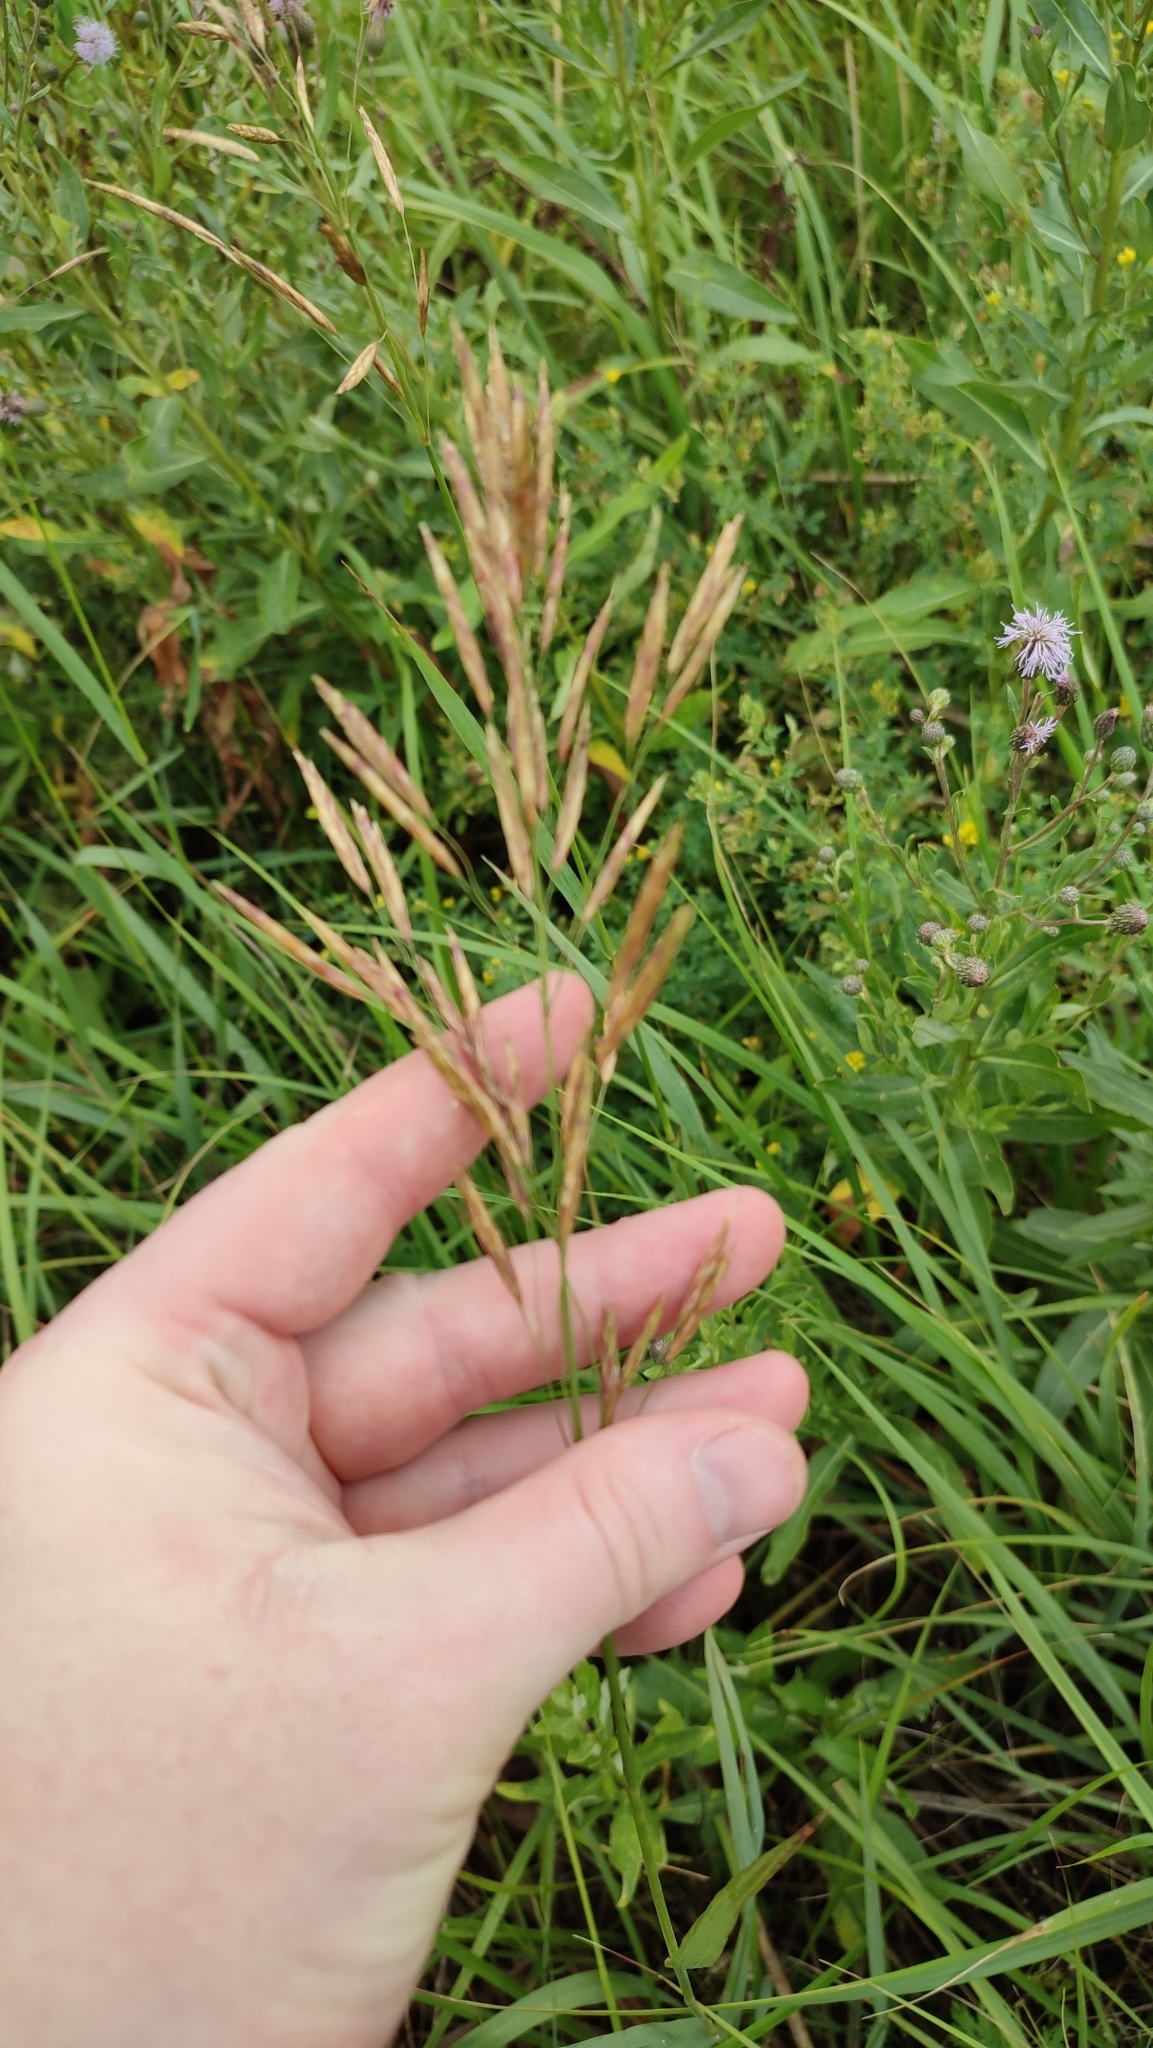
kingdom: Plantae
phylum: Tracheophyta
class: Liliopsida
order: Poales
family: Poaceae
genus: Bromus
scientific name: Bromus inermis
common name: Smooth brome
